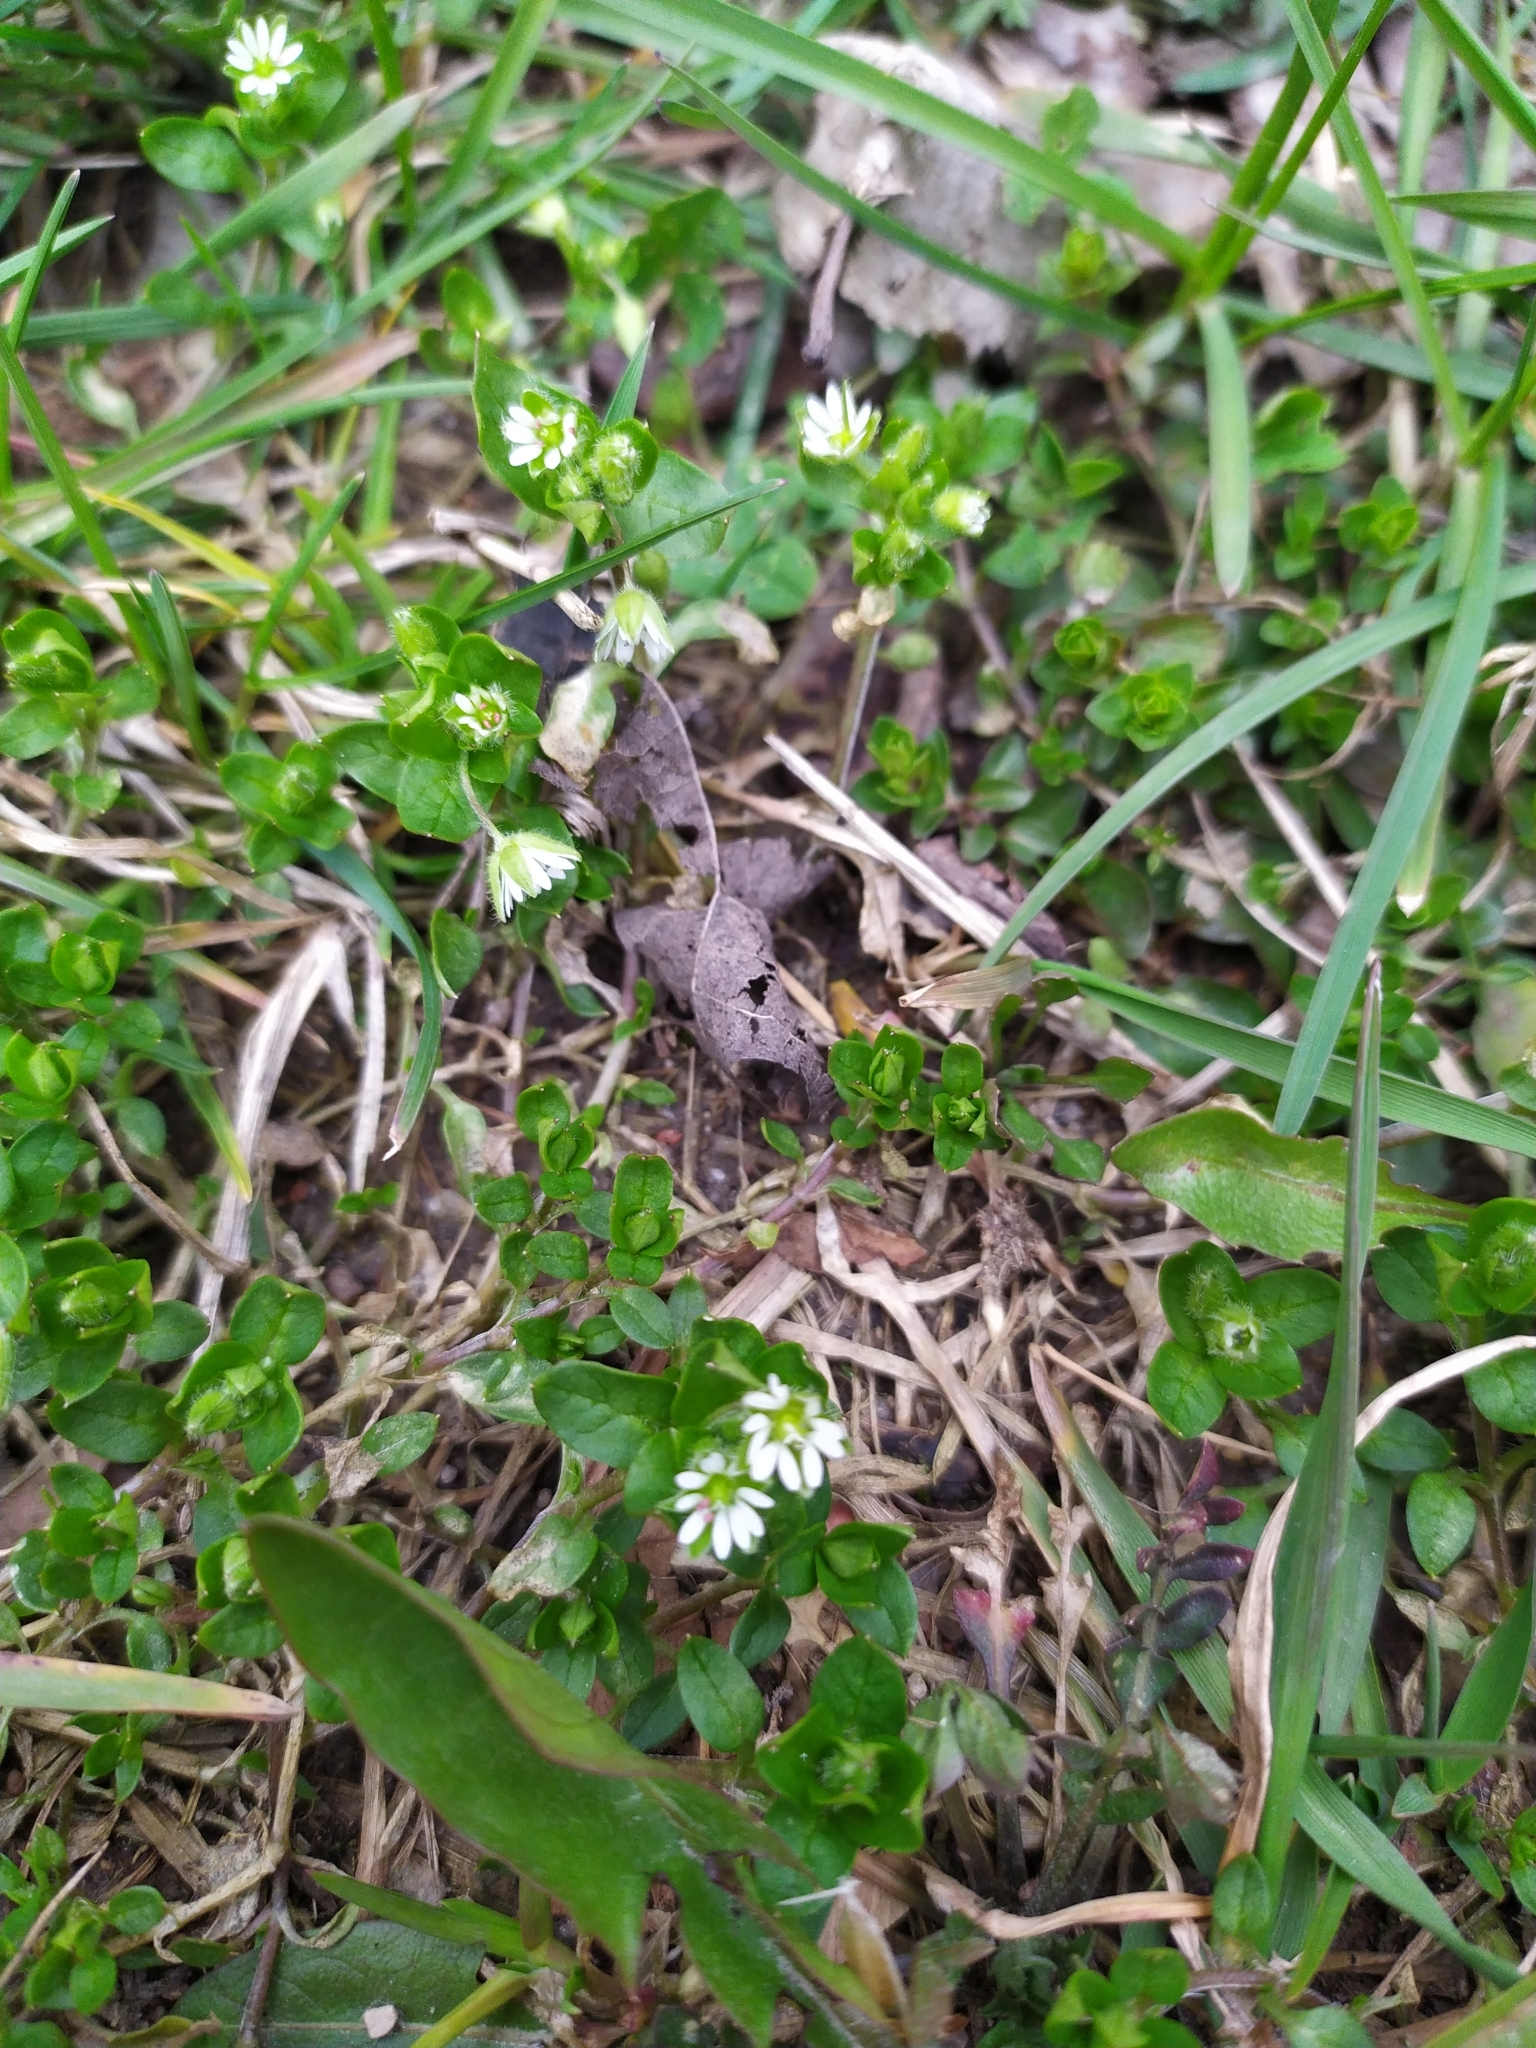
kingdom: Plantae
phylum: Tracheophyta
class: Magnoliopsida
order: Caryophyllales
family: Caryophyllaceae
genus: Stellaria
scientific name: Stellaria media
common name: Common chickweed
